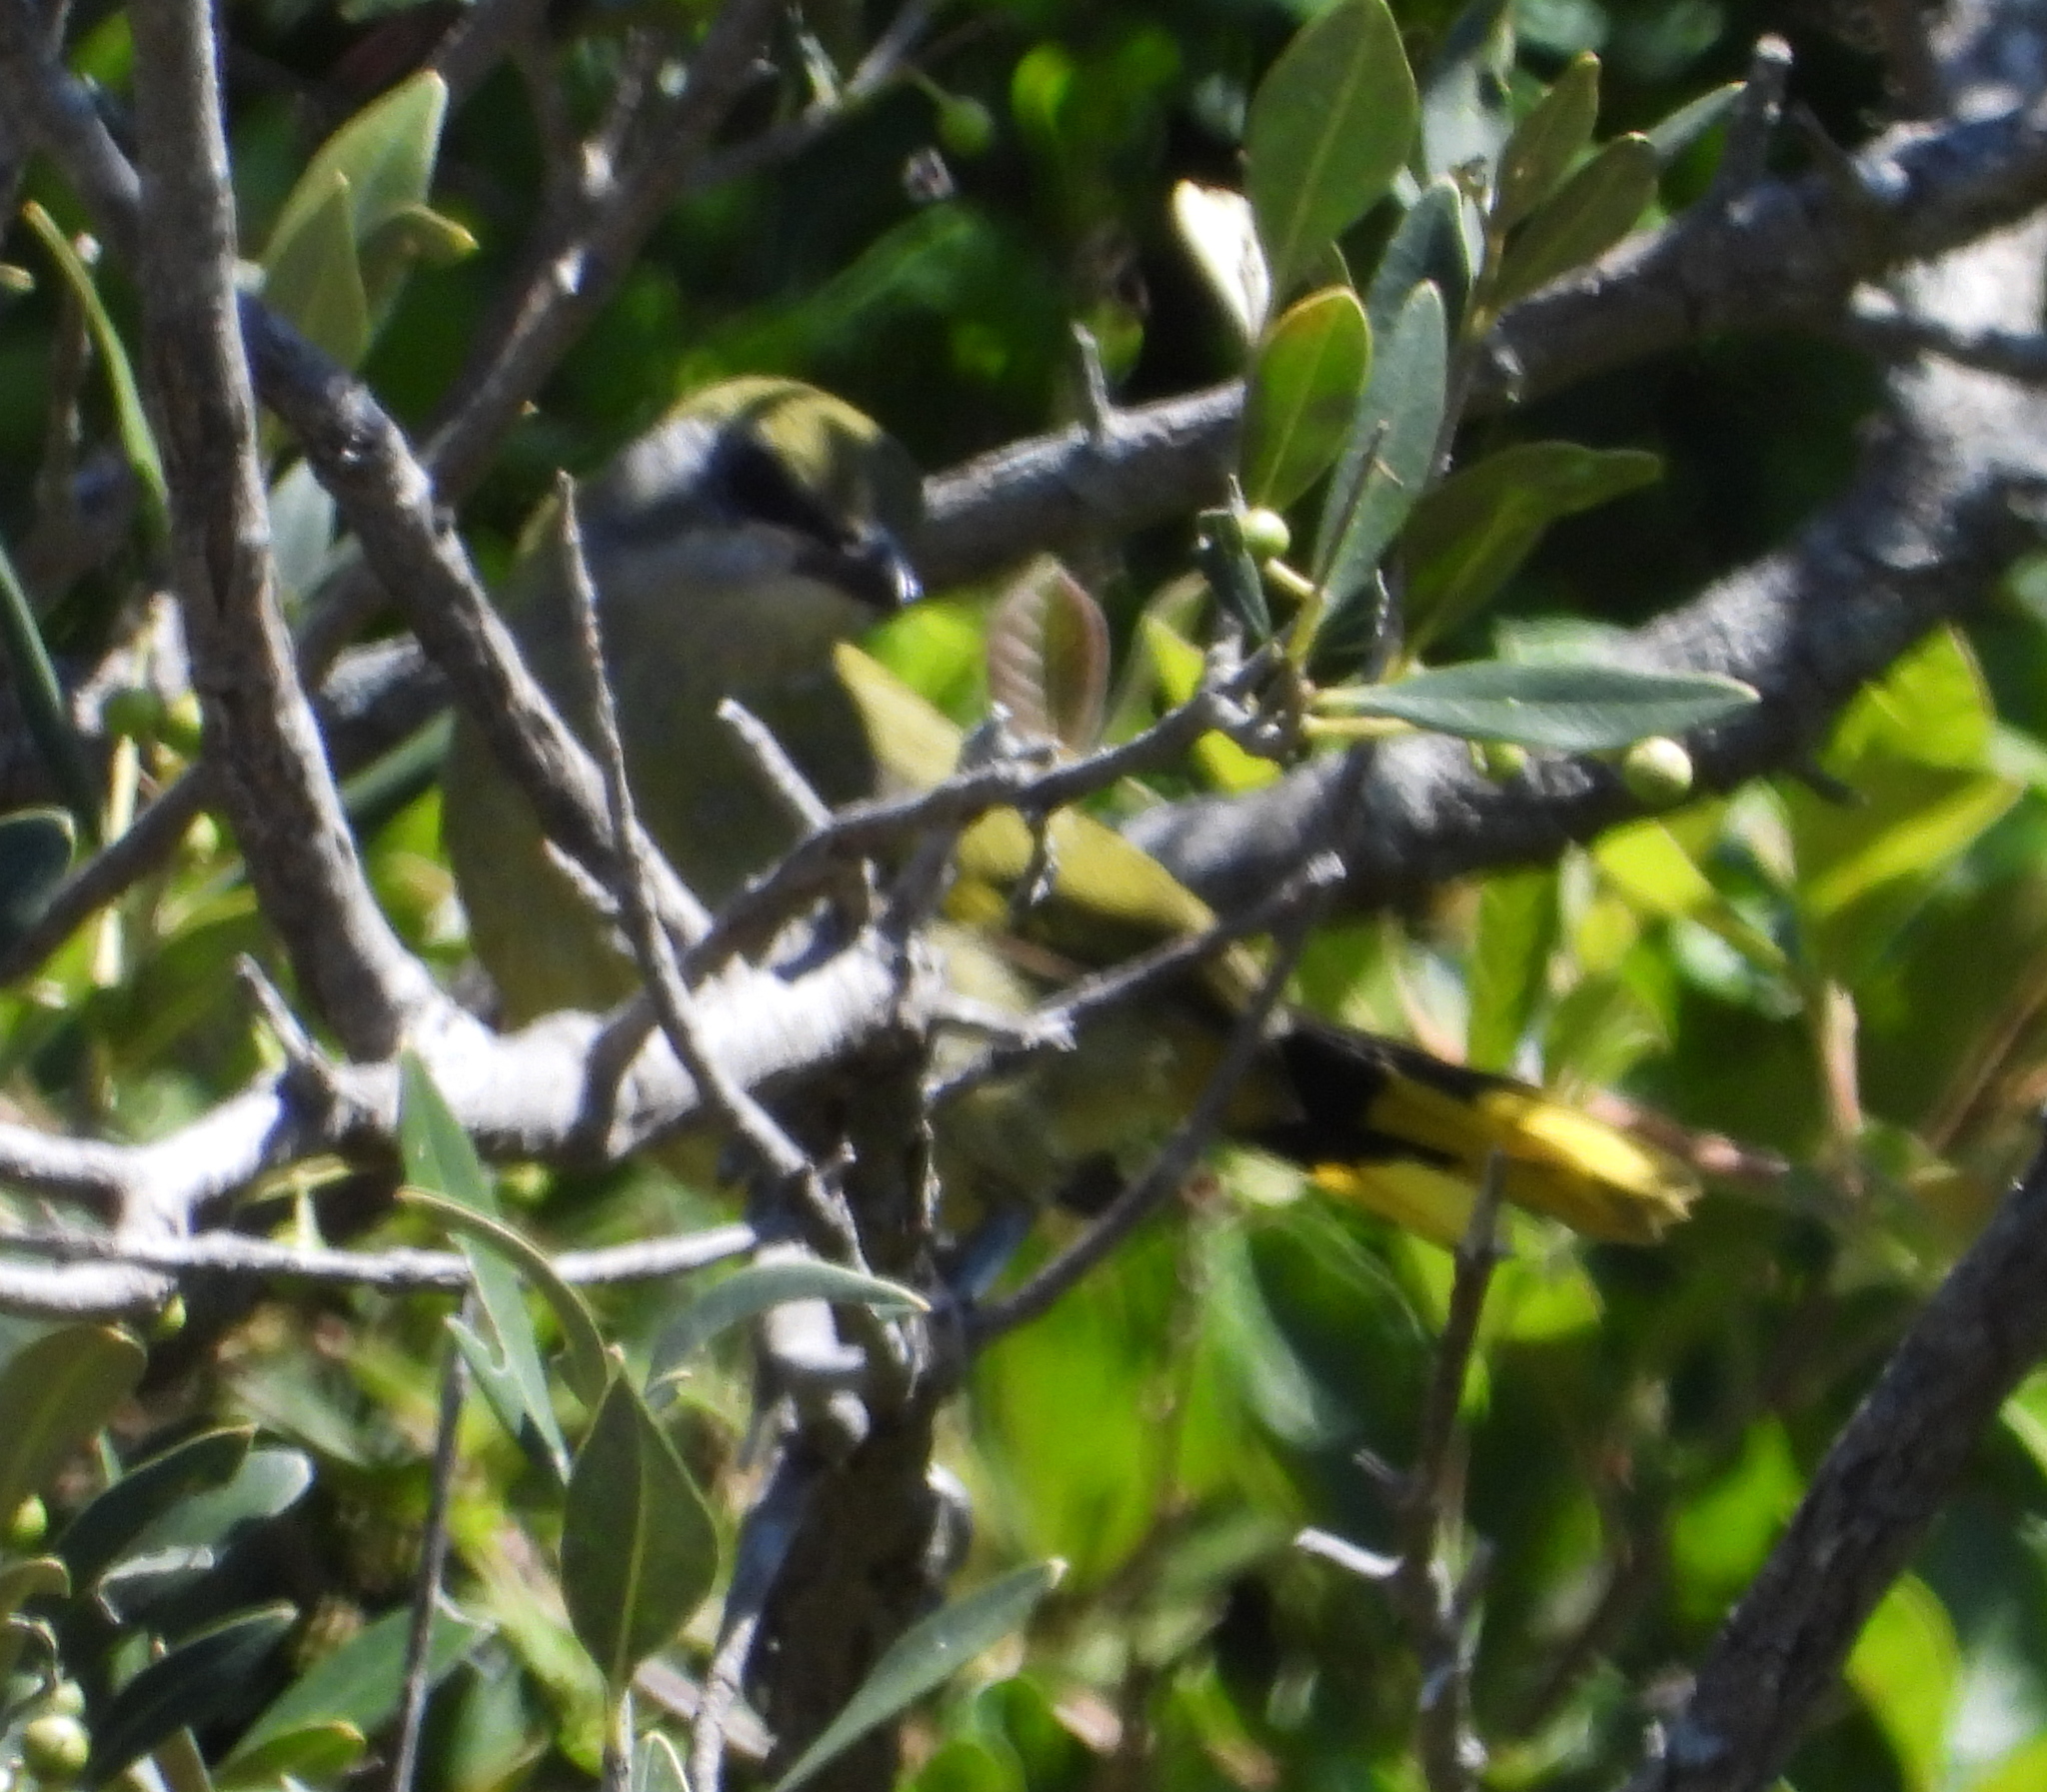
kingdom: Animalia
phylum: Chordata
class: Aves
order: Passeriformes
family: Malaconotidae
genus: Telophorus
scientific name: Telophorus zeylonus
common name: Bokmakierie
